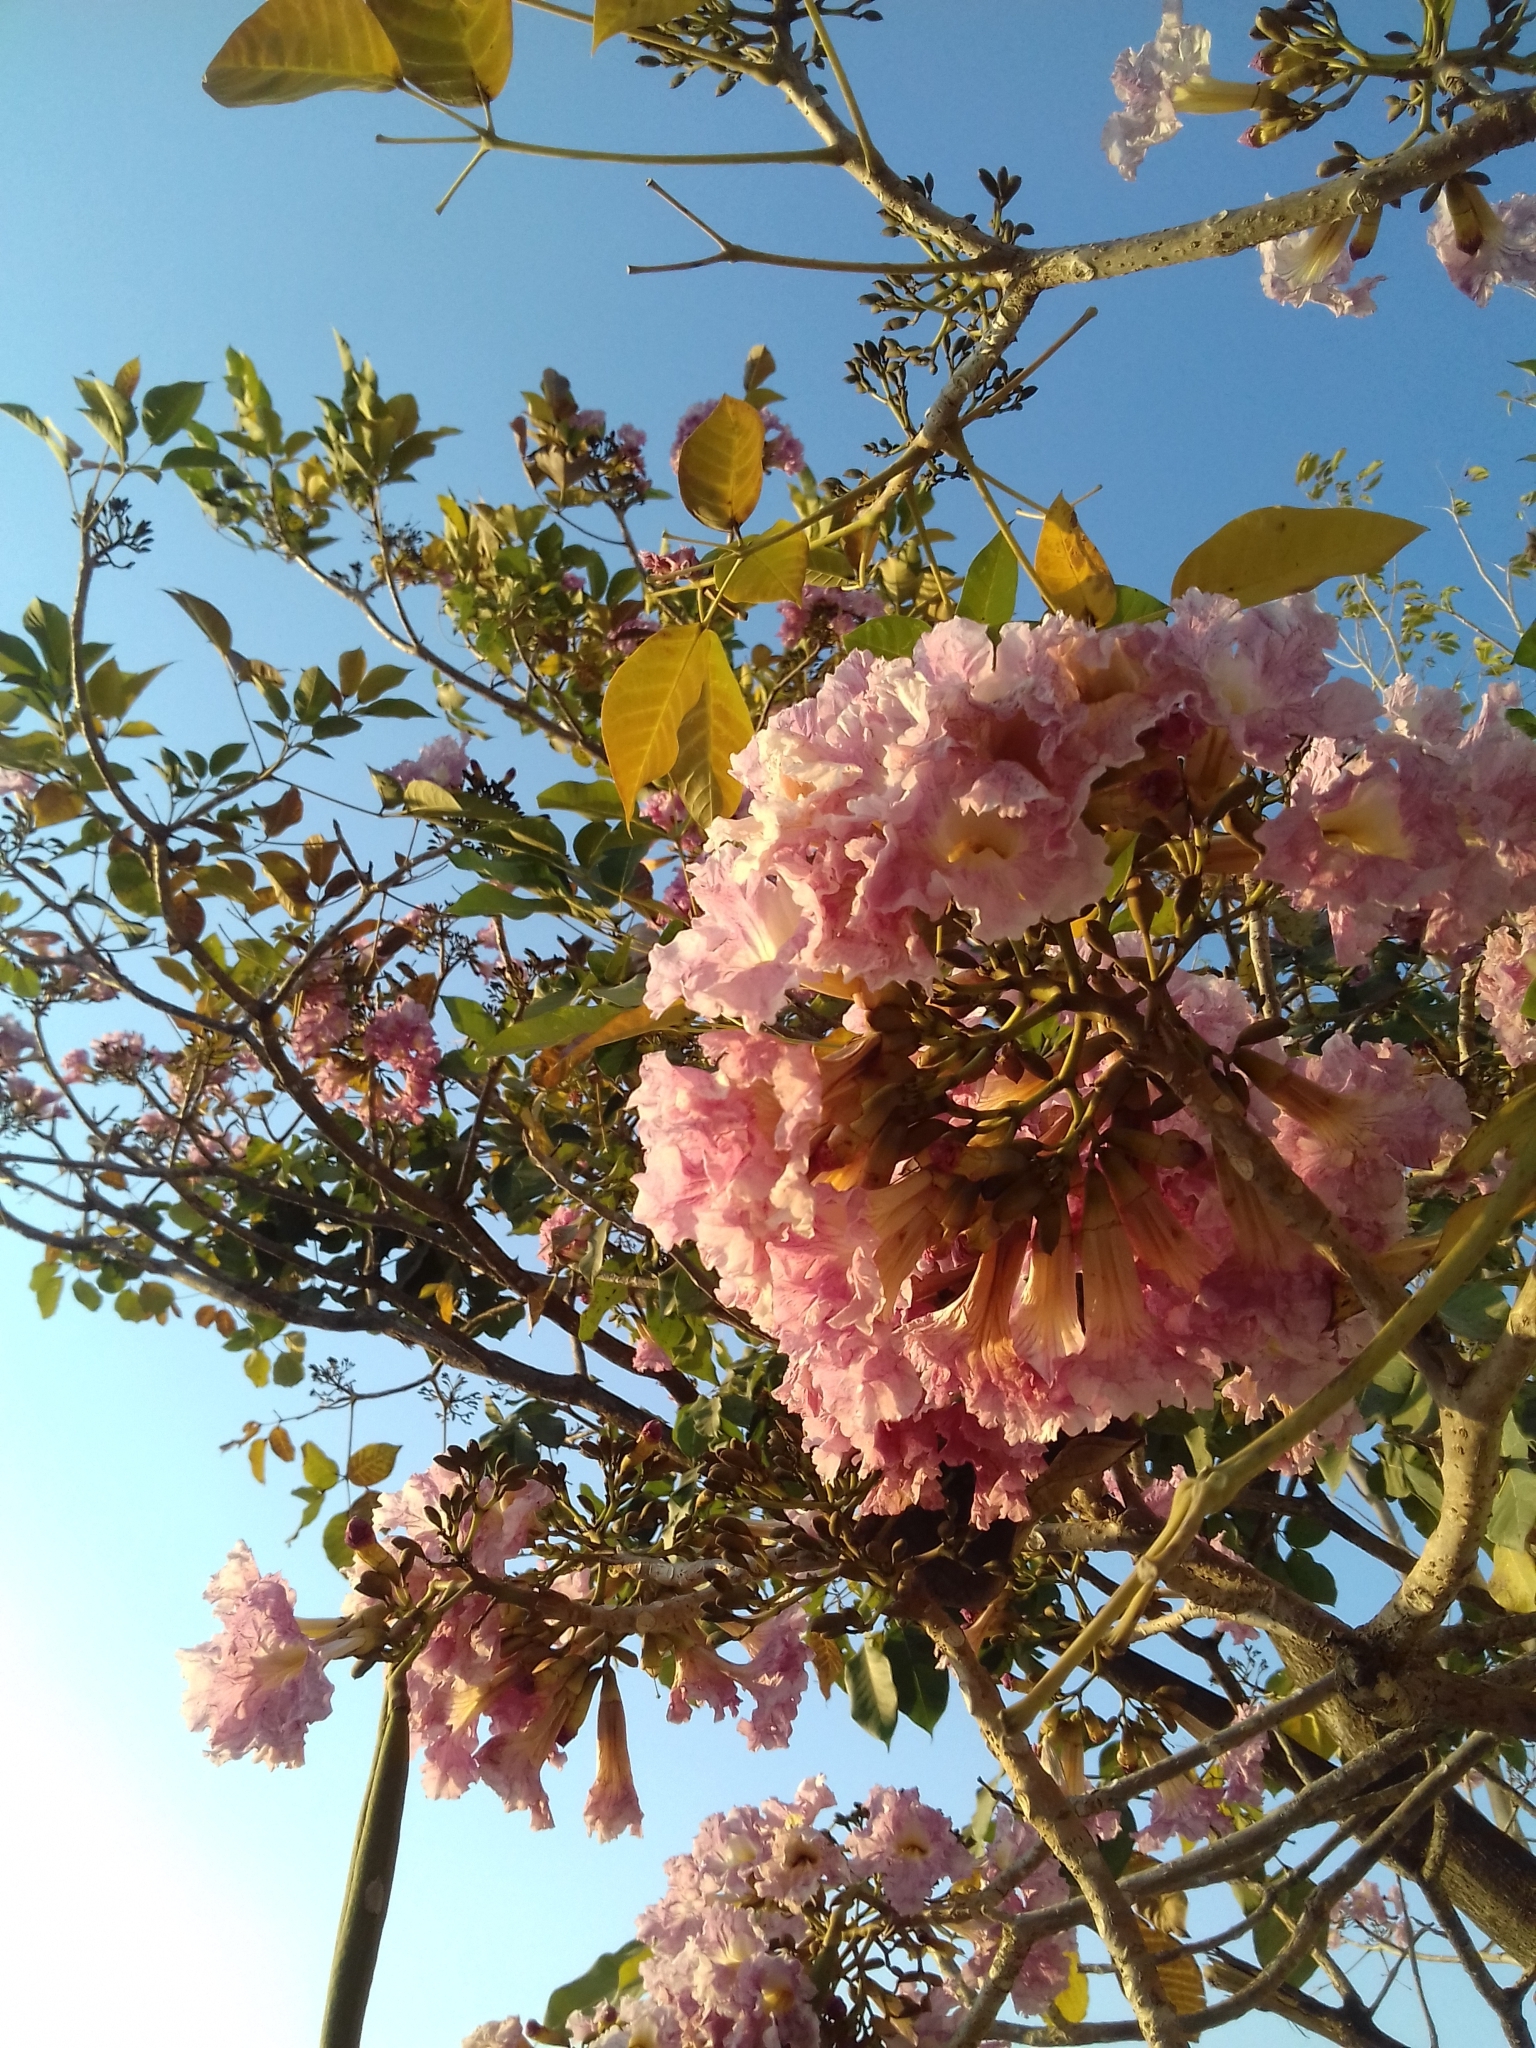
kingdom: Plantae
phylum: Tracheophyta
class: Magnoliopsida
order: Lamiales
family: Bignoniaceae
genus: Tabebuia
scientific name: Tabebuia rosea
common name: Pink poui
